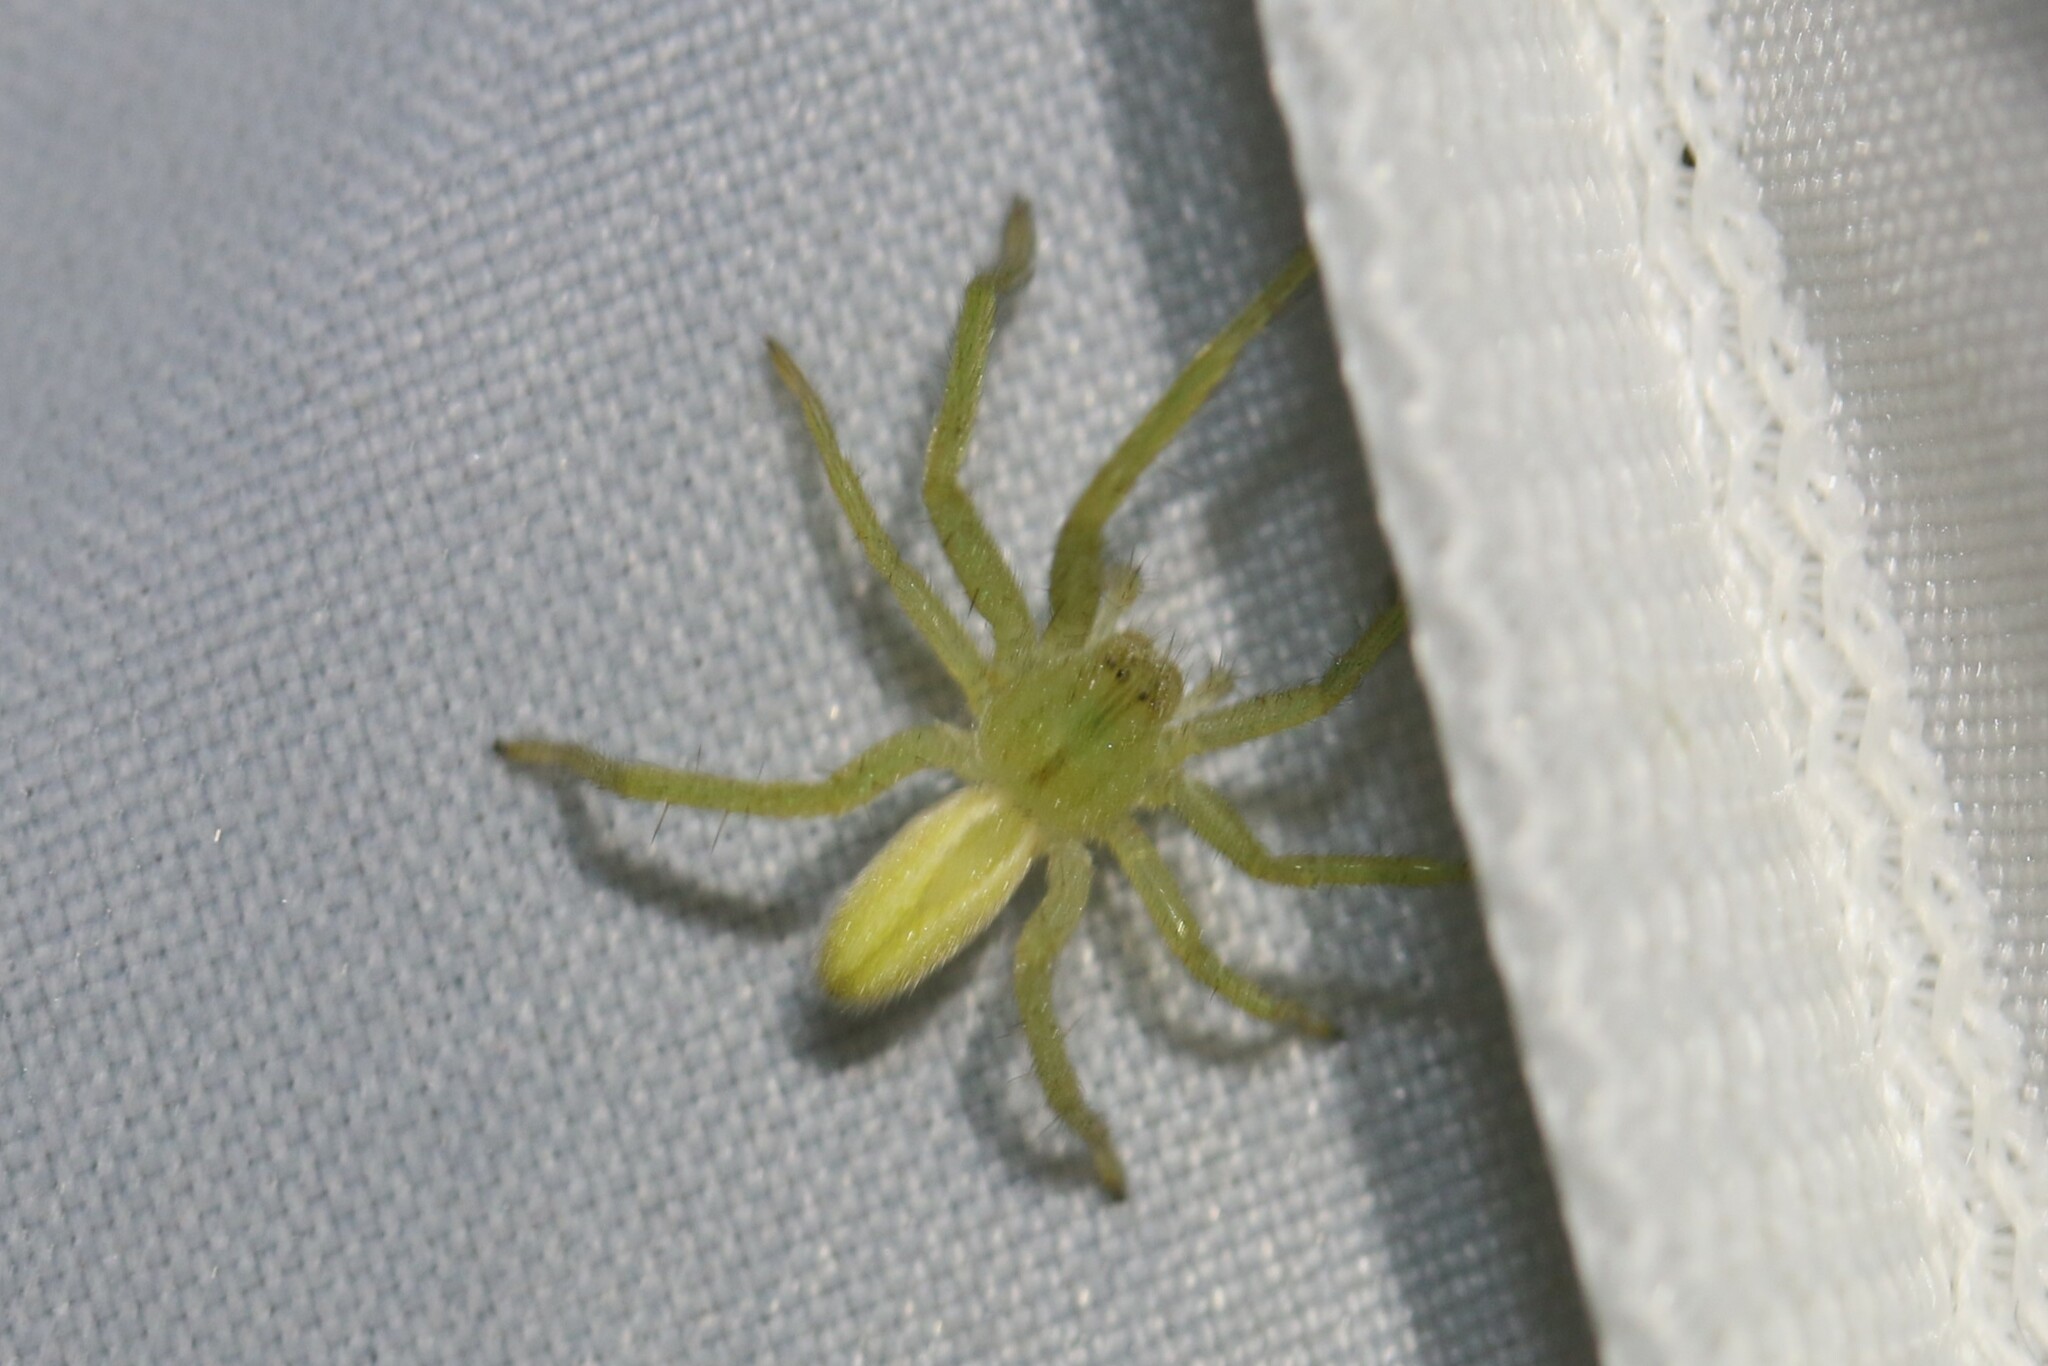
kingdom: Animalia
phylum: Arthropoda
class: Arachnida
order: Araneae
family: Sparassidae
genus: Micrommata
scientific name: Micrommata virescens
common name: Green spider
